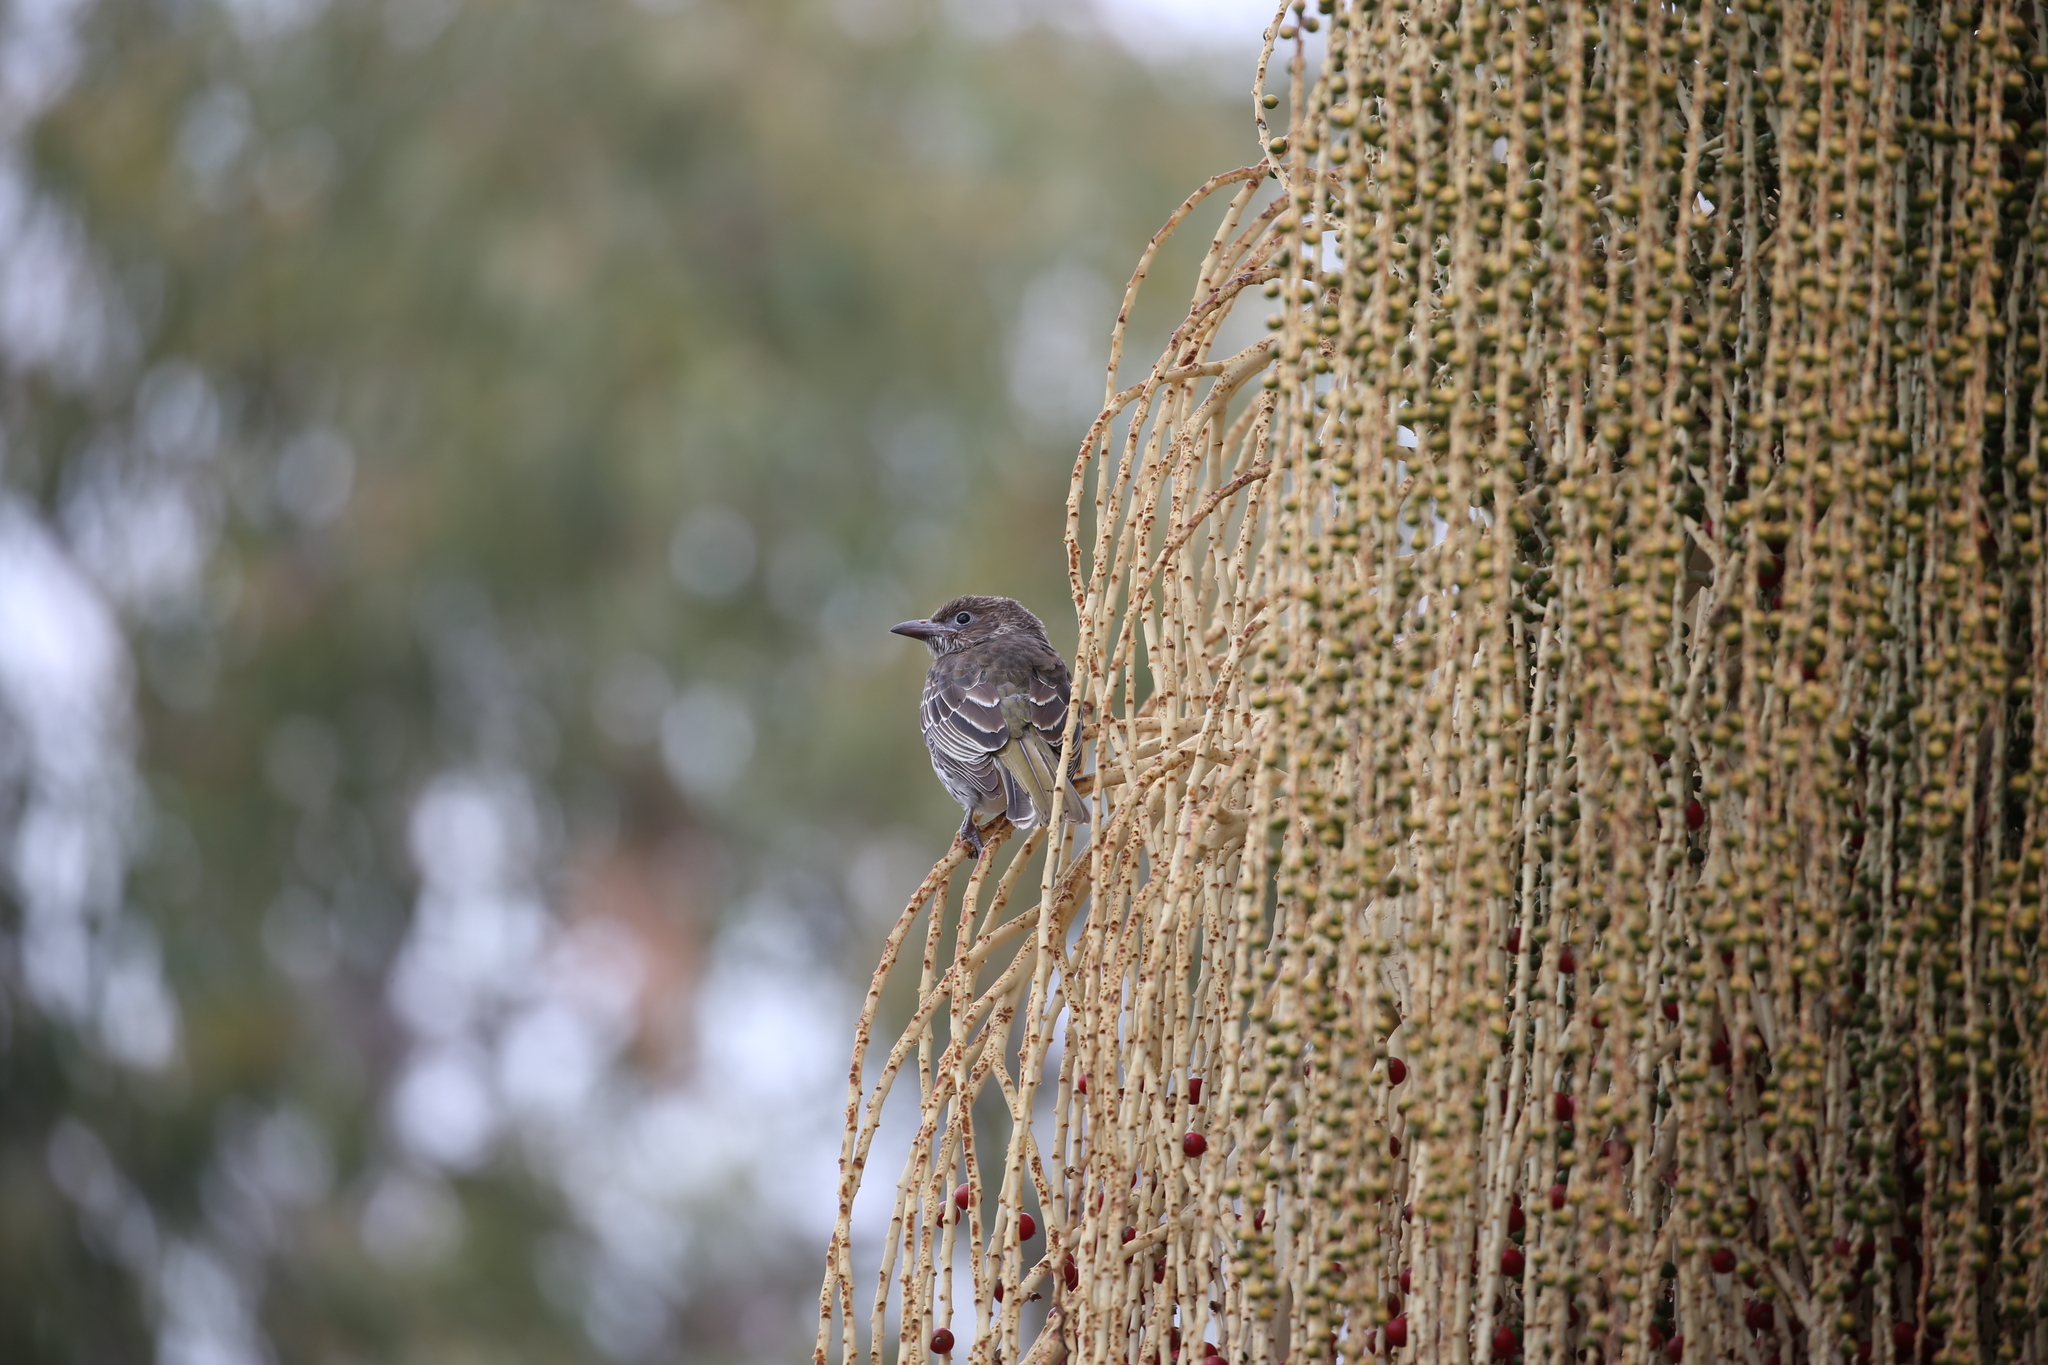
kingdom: Animalia
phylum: Chordata
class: Aves
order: Passeriformes
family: Oriolidae
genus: Sphecotheres
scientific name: Sphecotheres vieilloti
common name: Australasian figbird
